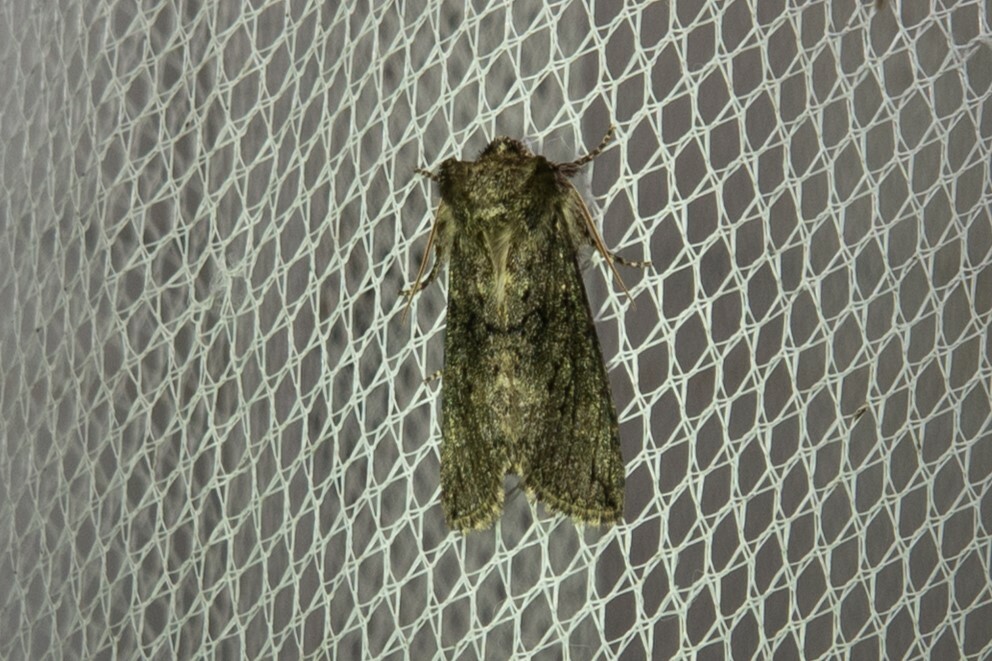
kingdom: Animalia
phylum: Arthropoda
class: Insecta
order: Lepidoptera
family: Drepanidae
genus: Polyploca
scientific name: Polyploca ridens
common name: Frosted green
